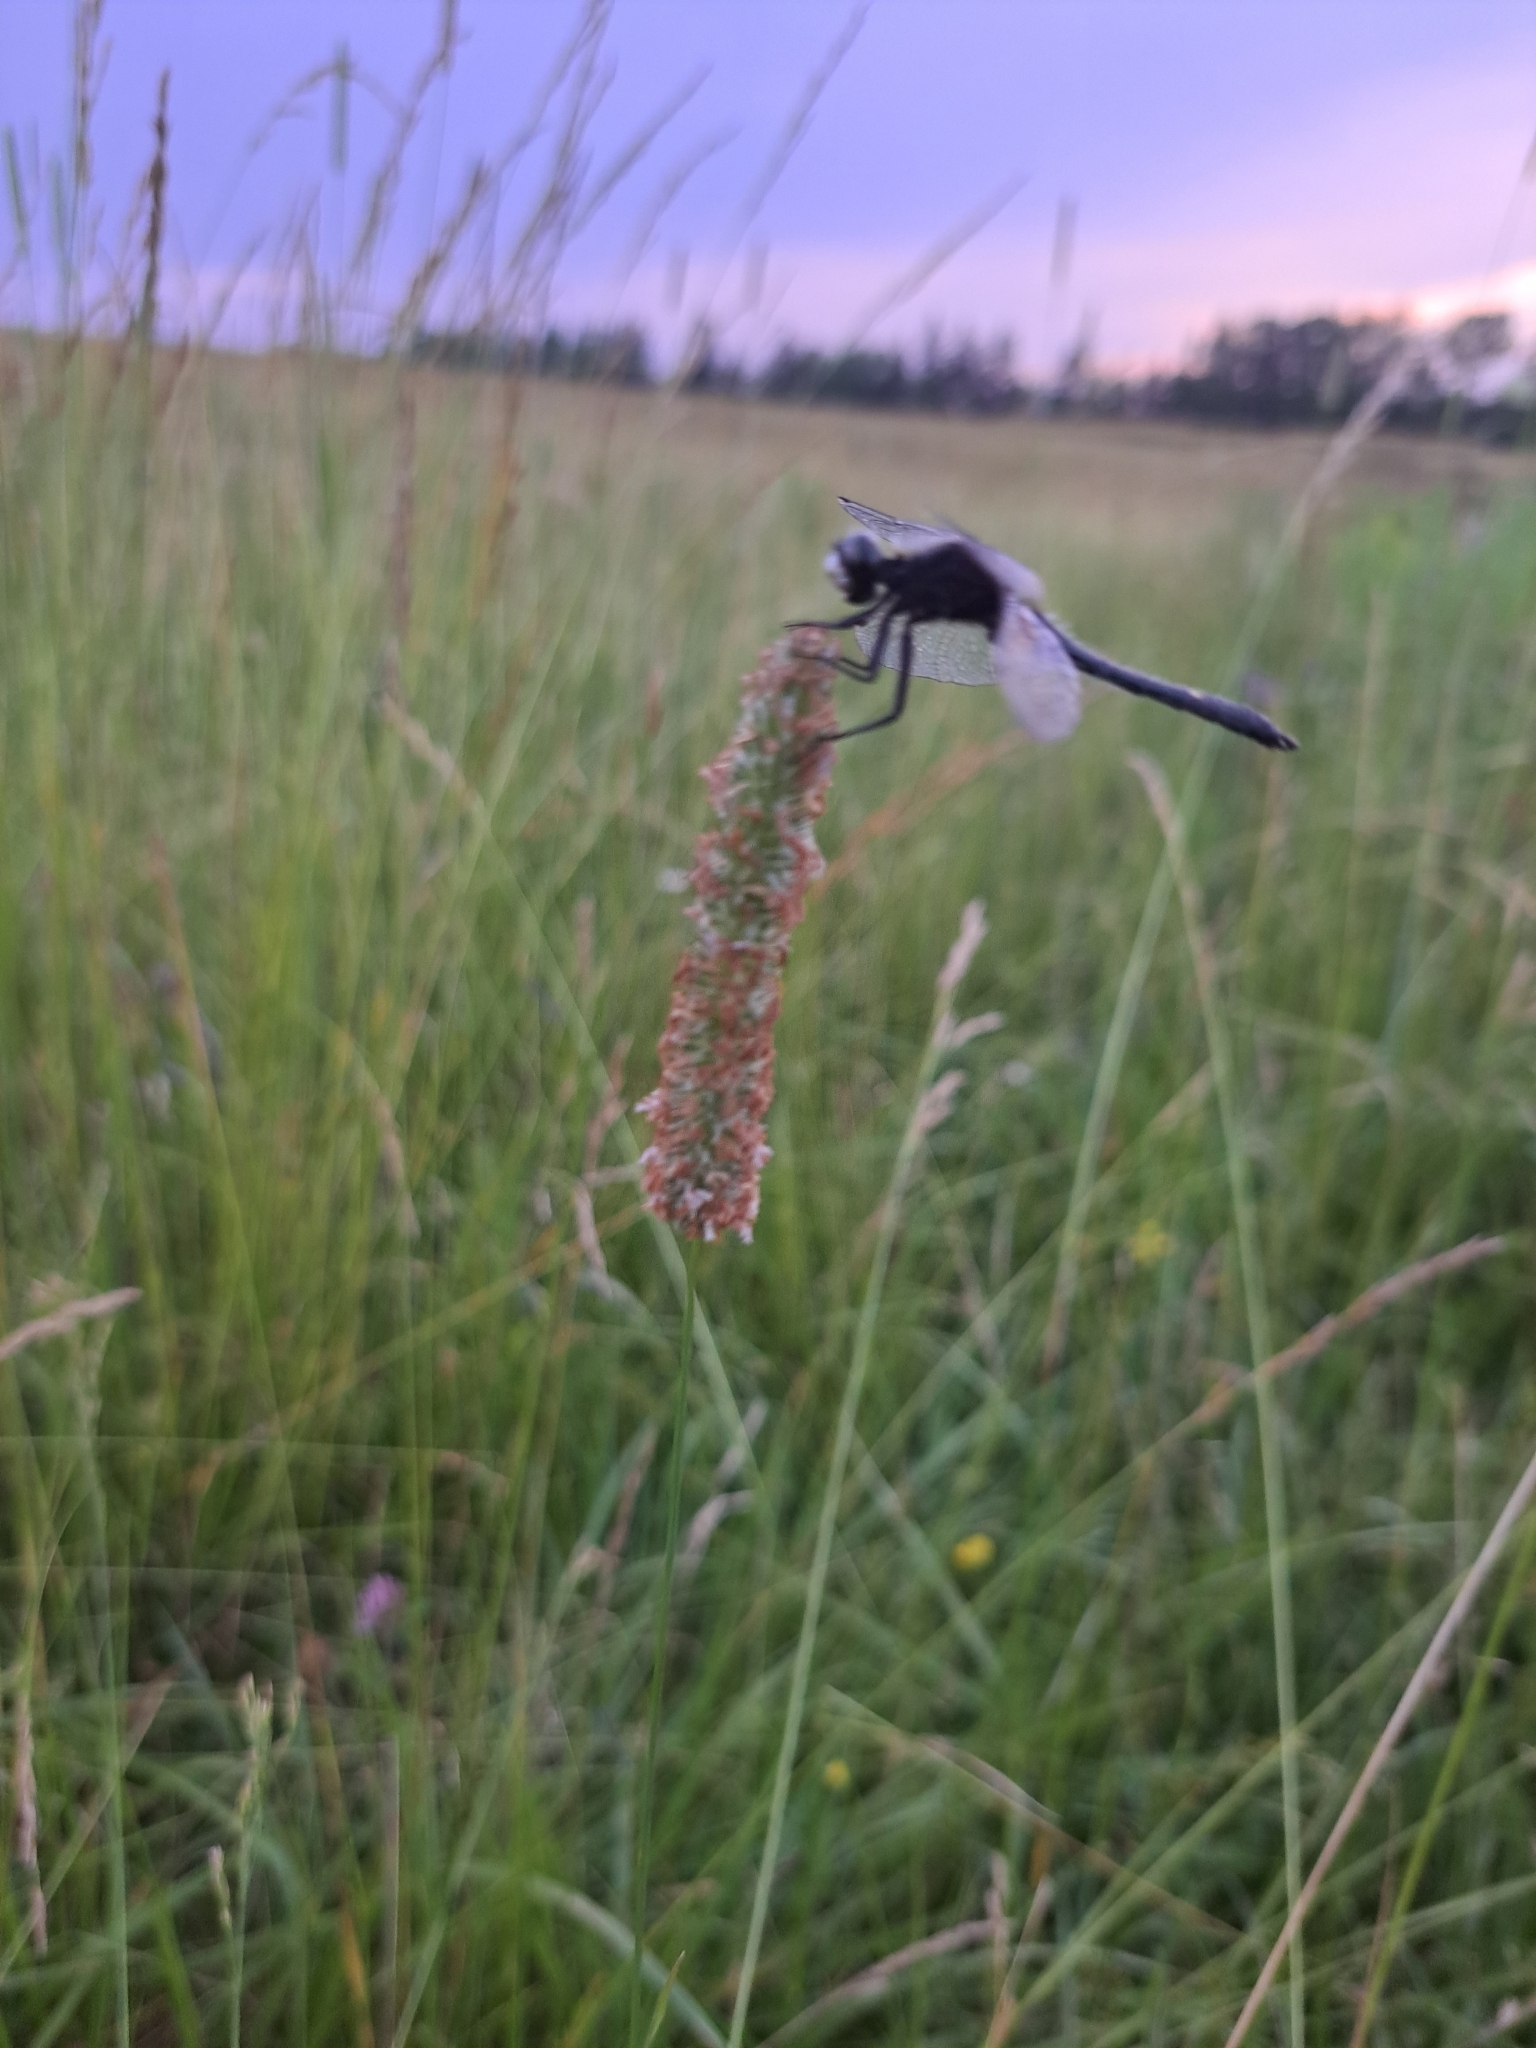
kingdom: Animalia
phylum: Arthropoda
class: Insecta
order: Odonata
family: Libellulidae
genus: Leucorrhinia
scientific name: Leucorrhinia intacta
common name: Dot-tailed whiteface
